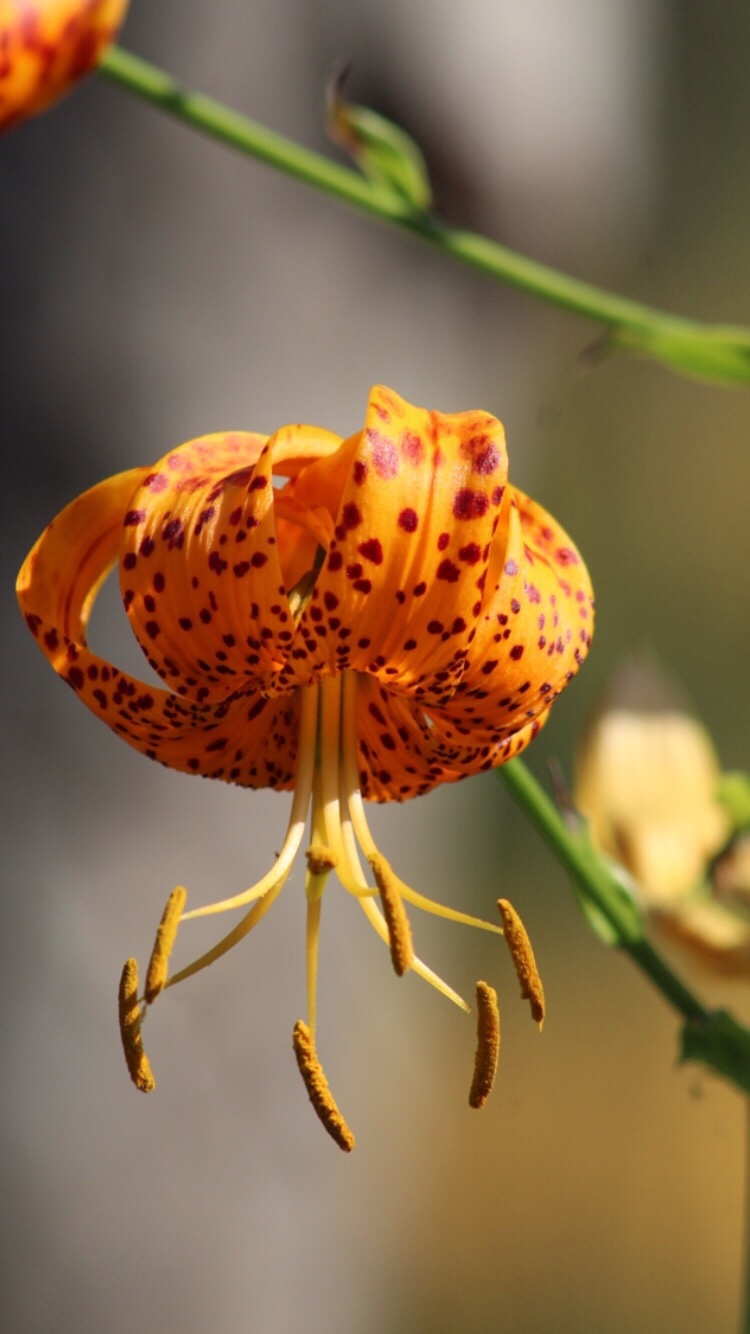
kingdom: Plantae
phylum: Tracheophyta
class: Liliopsida
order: Liliales
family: Liliaceae
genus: Lilium
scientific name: Lilium humboldtii
